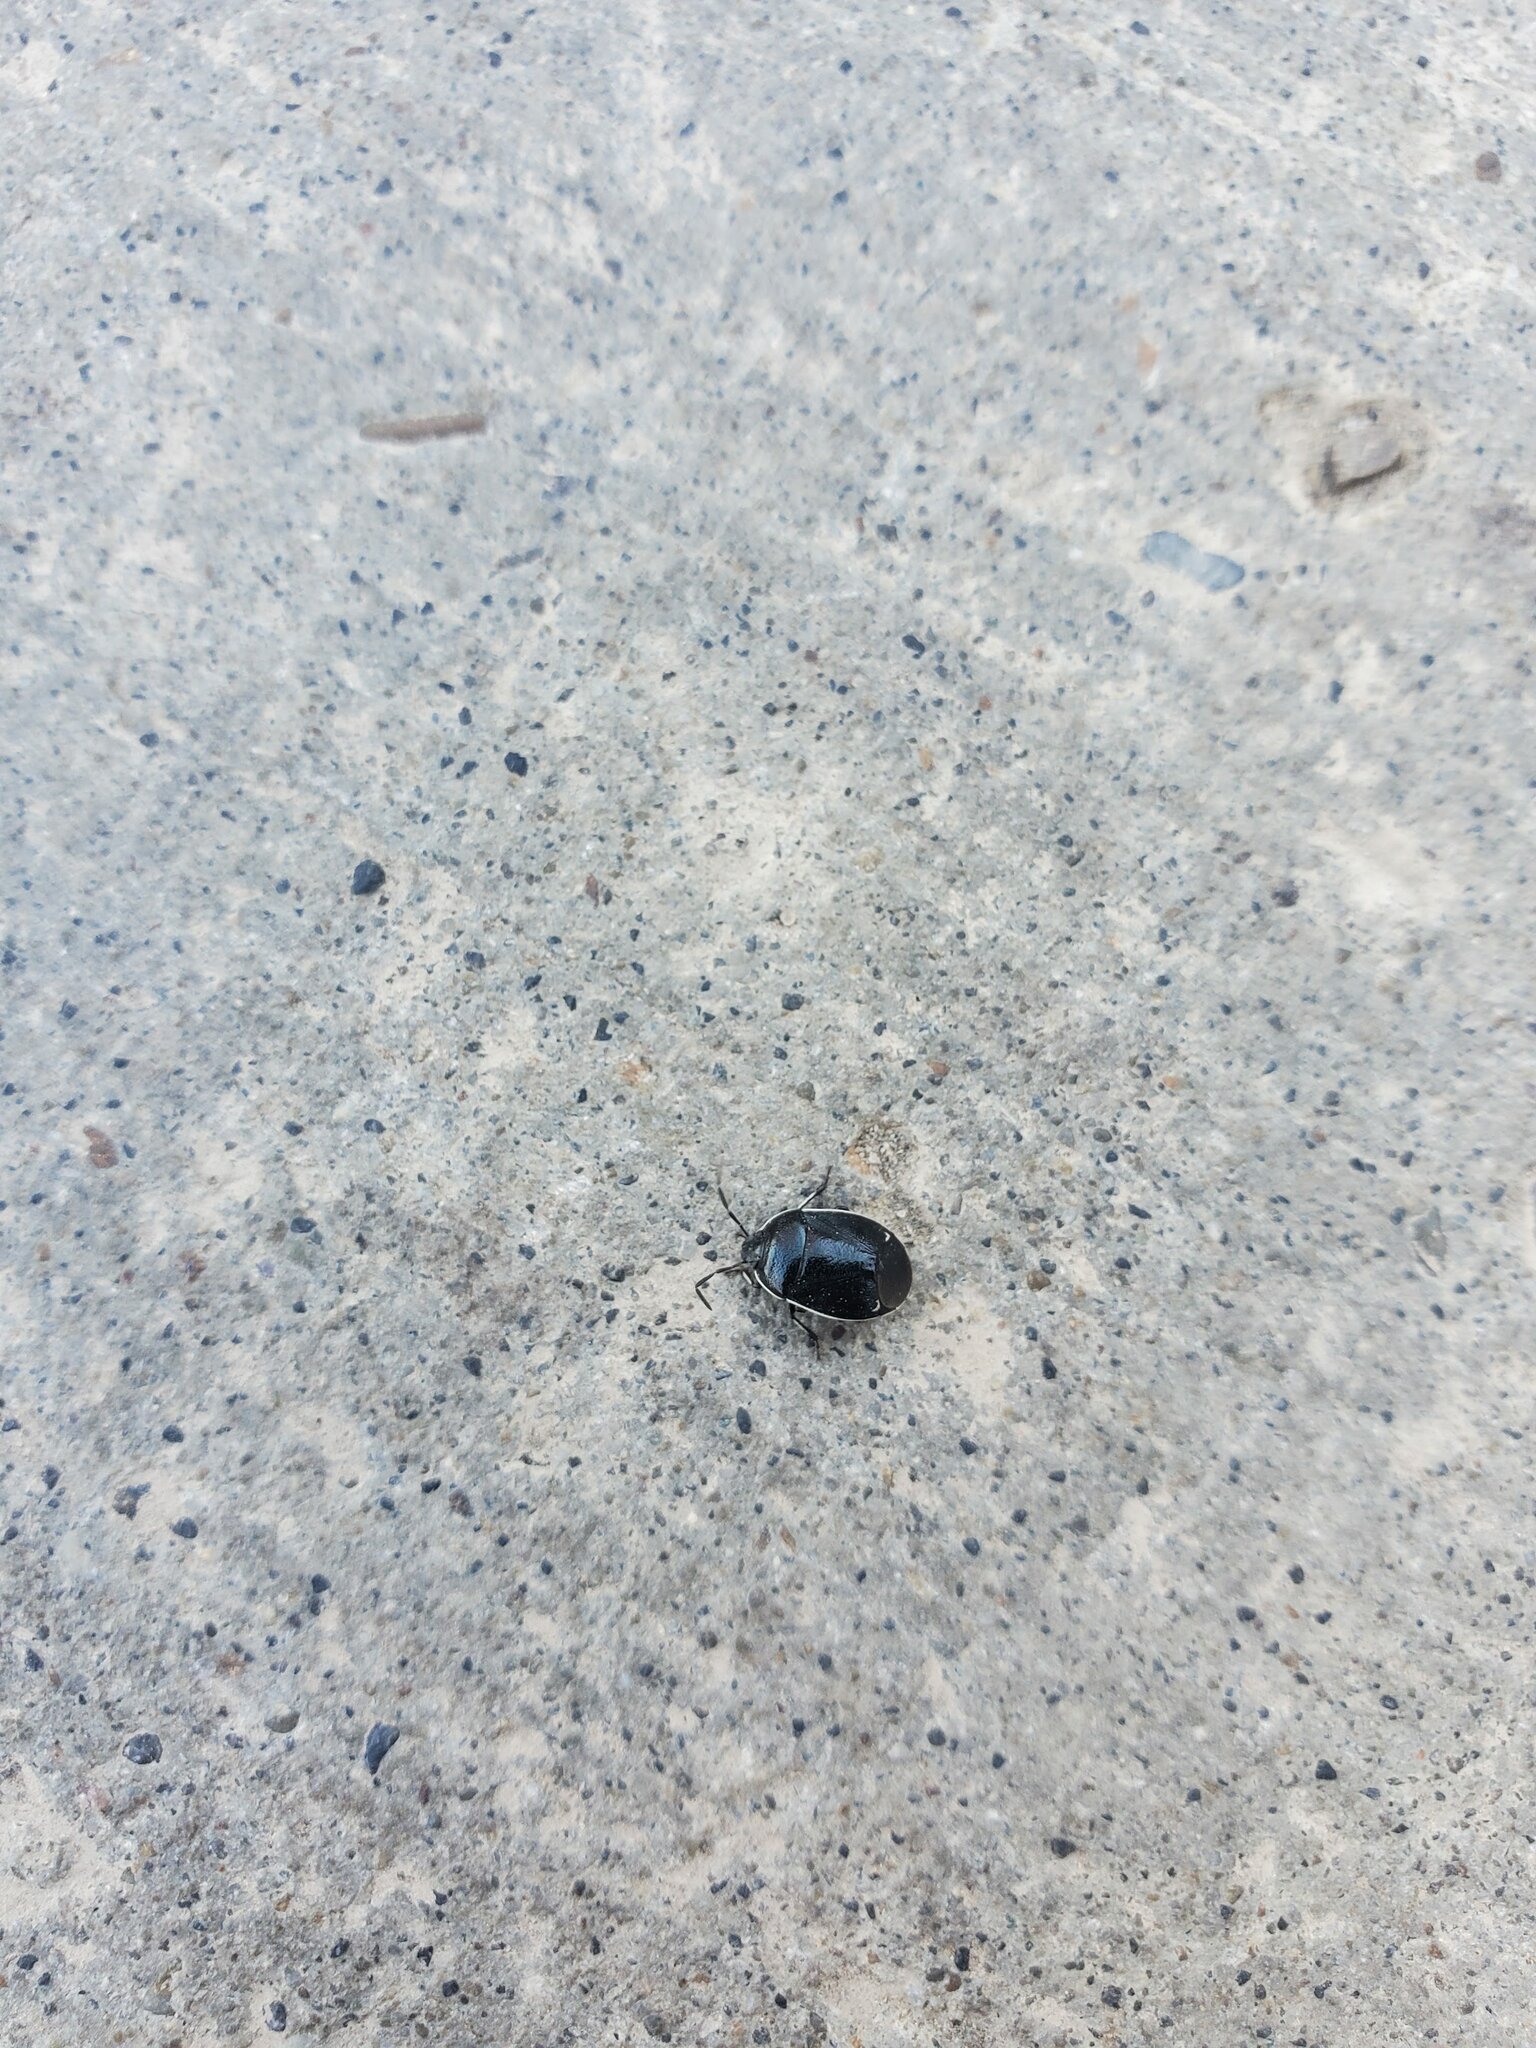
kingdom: Animalia
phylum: Arthropoda
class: Insecta
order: Hemiptera
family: Cydnidae
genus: Sehirus
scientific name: Sehirus cinctus
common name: White-margined burrower bug
